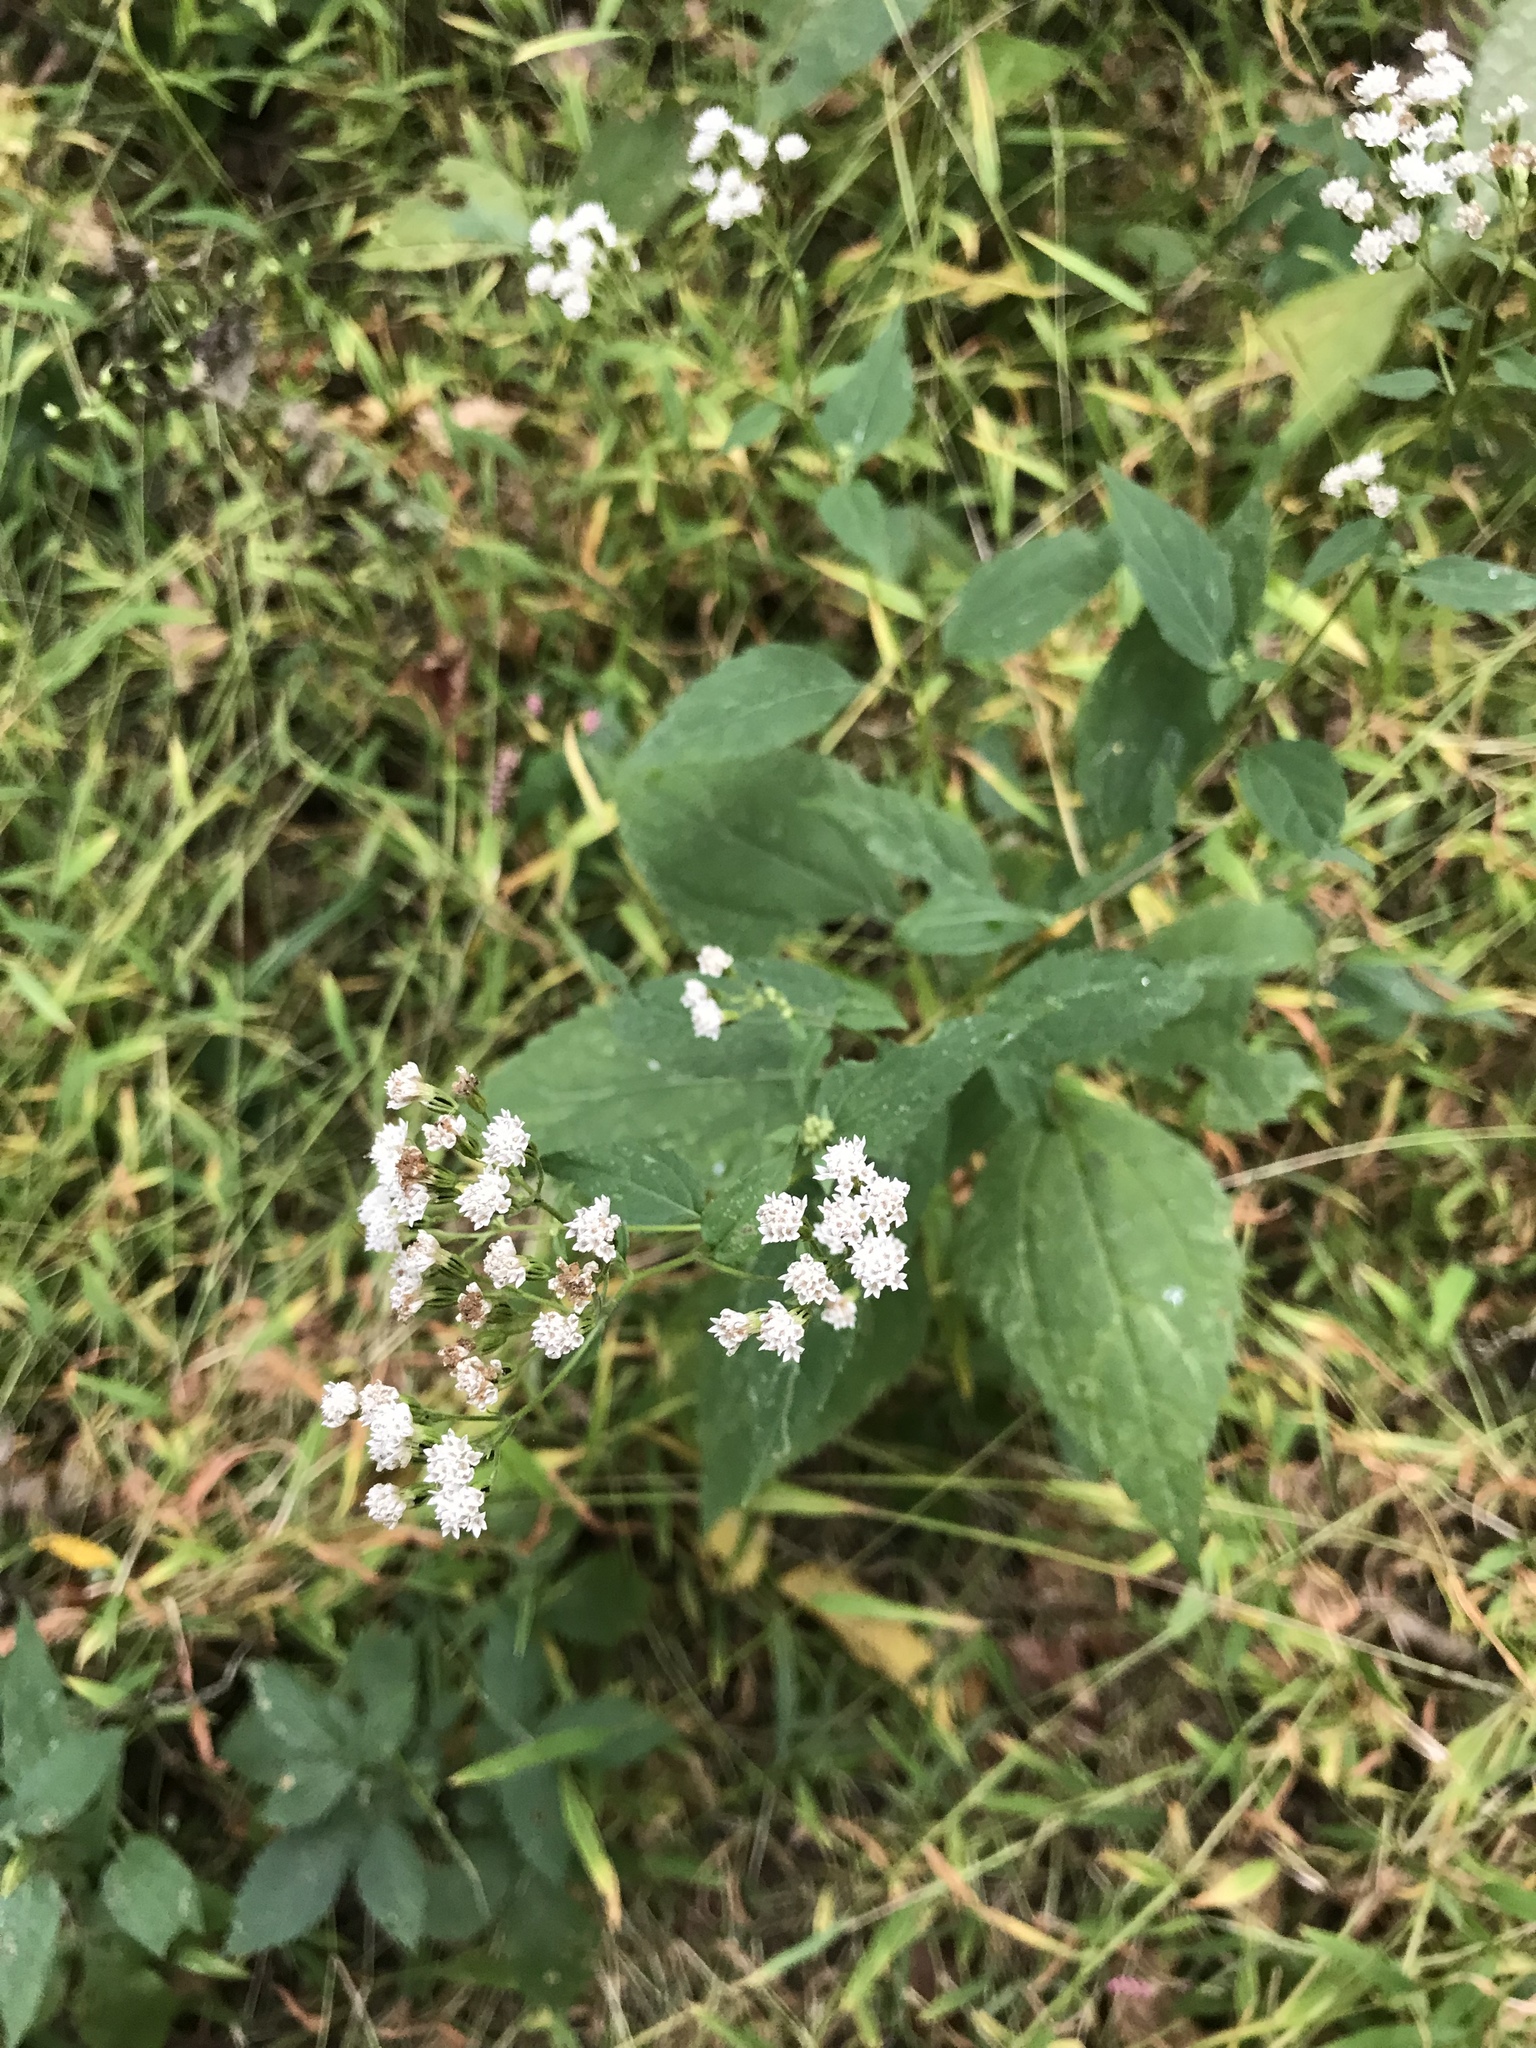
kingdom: Plantae
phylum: Tracheophyta
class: Magnoliopsida
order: Asterales
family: Asteraceae
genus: Ageratina
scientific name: Ageratina altissima
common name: White snakeroot
